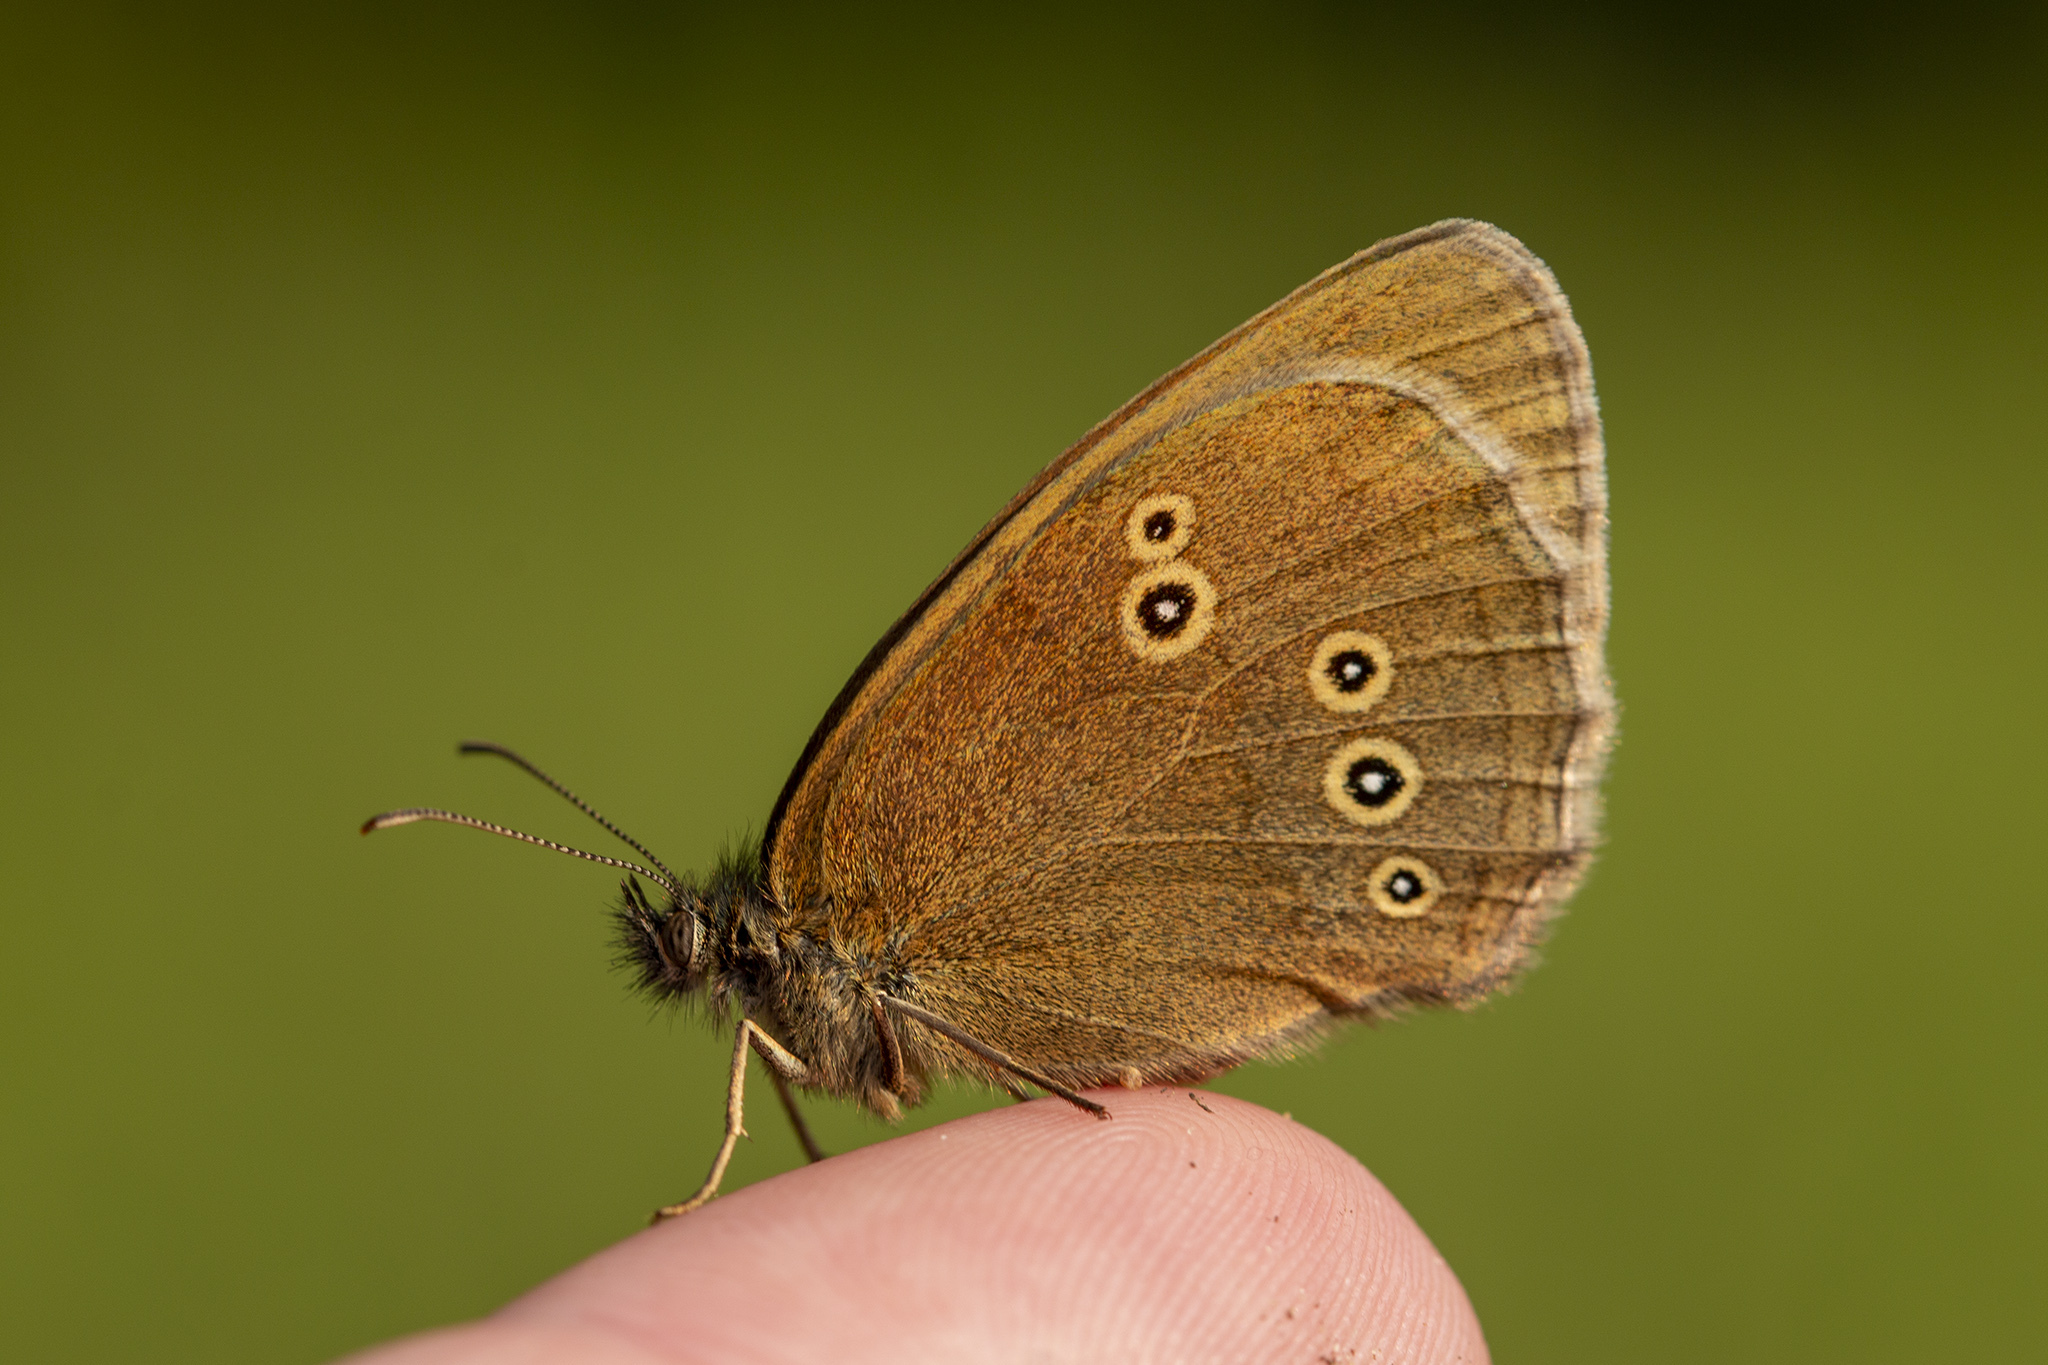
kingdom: Animalia
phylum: Arthropoda
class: Insecta
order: Lepidoptera
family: Nymphalidae
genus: Aphantopus
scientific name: Aphantopus hyperantus
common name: Ringlet
